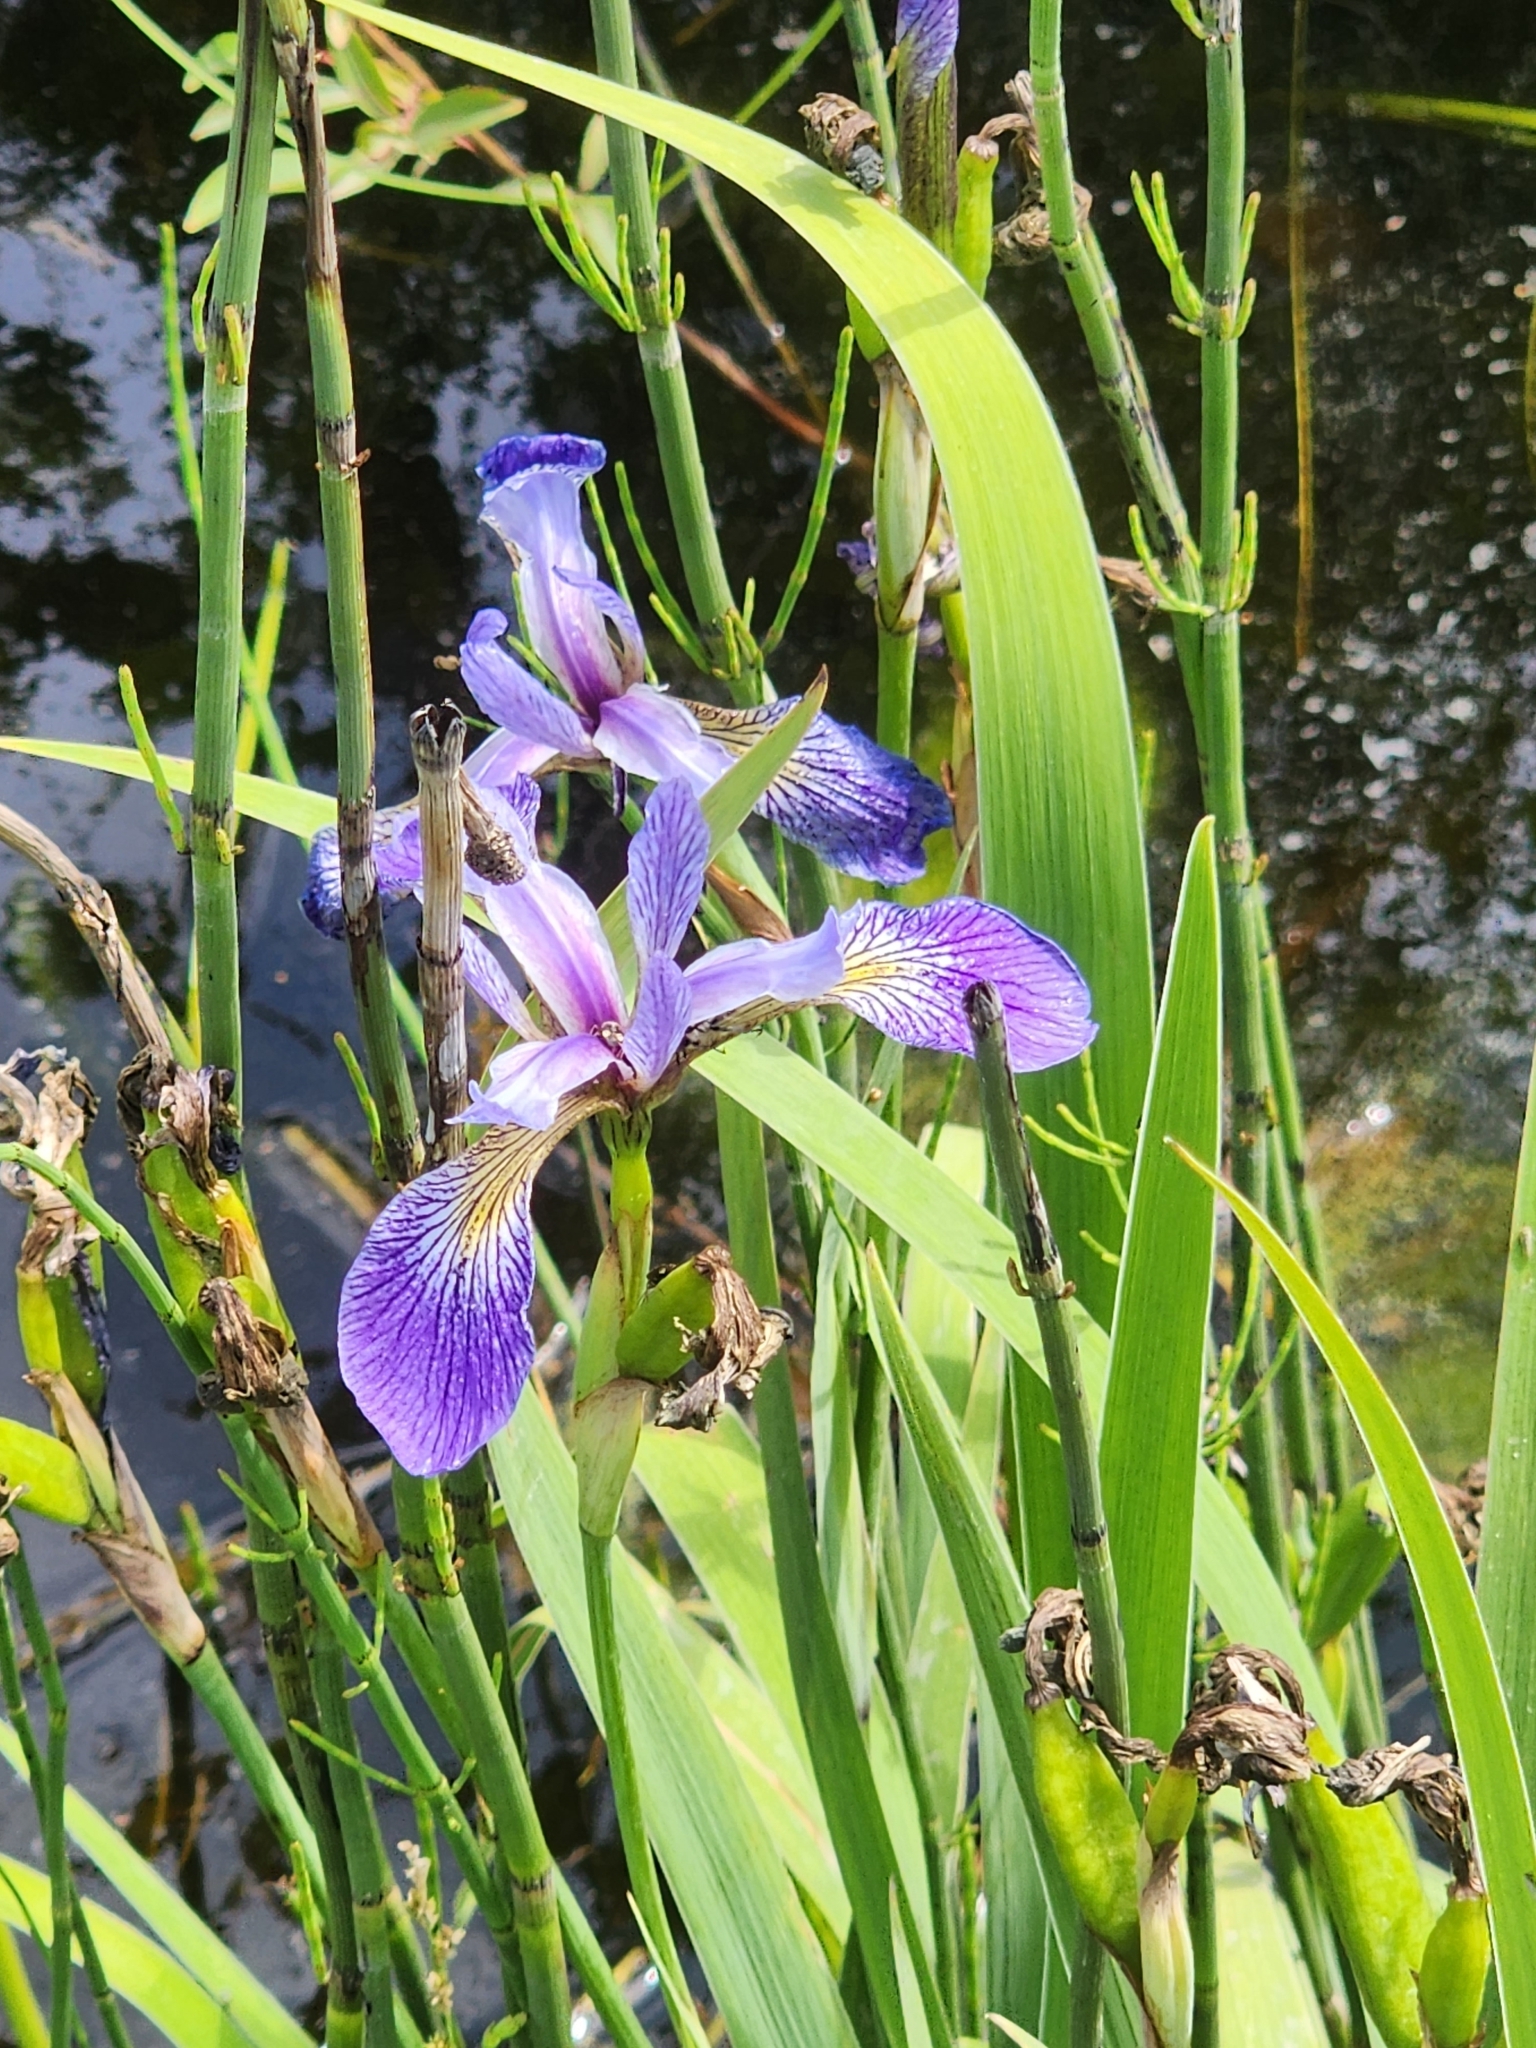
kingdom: Plantae
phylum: Tracheophyta
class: Liliopsida
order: Asparagales
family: Iridaceae
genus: Iris
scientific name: Iris versicolor
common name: Purple iris
